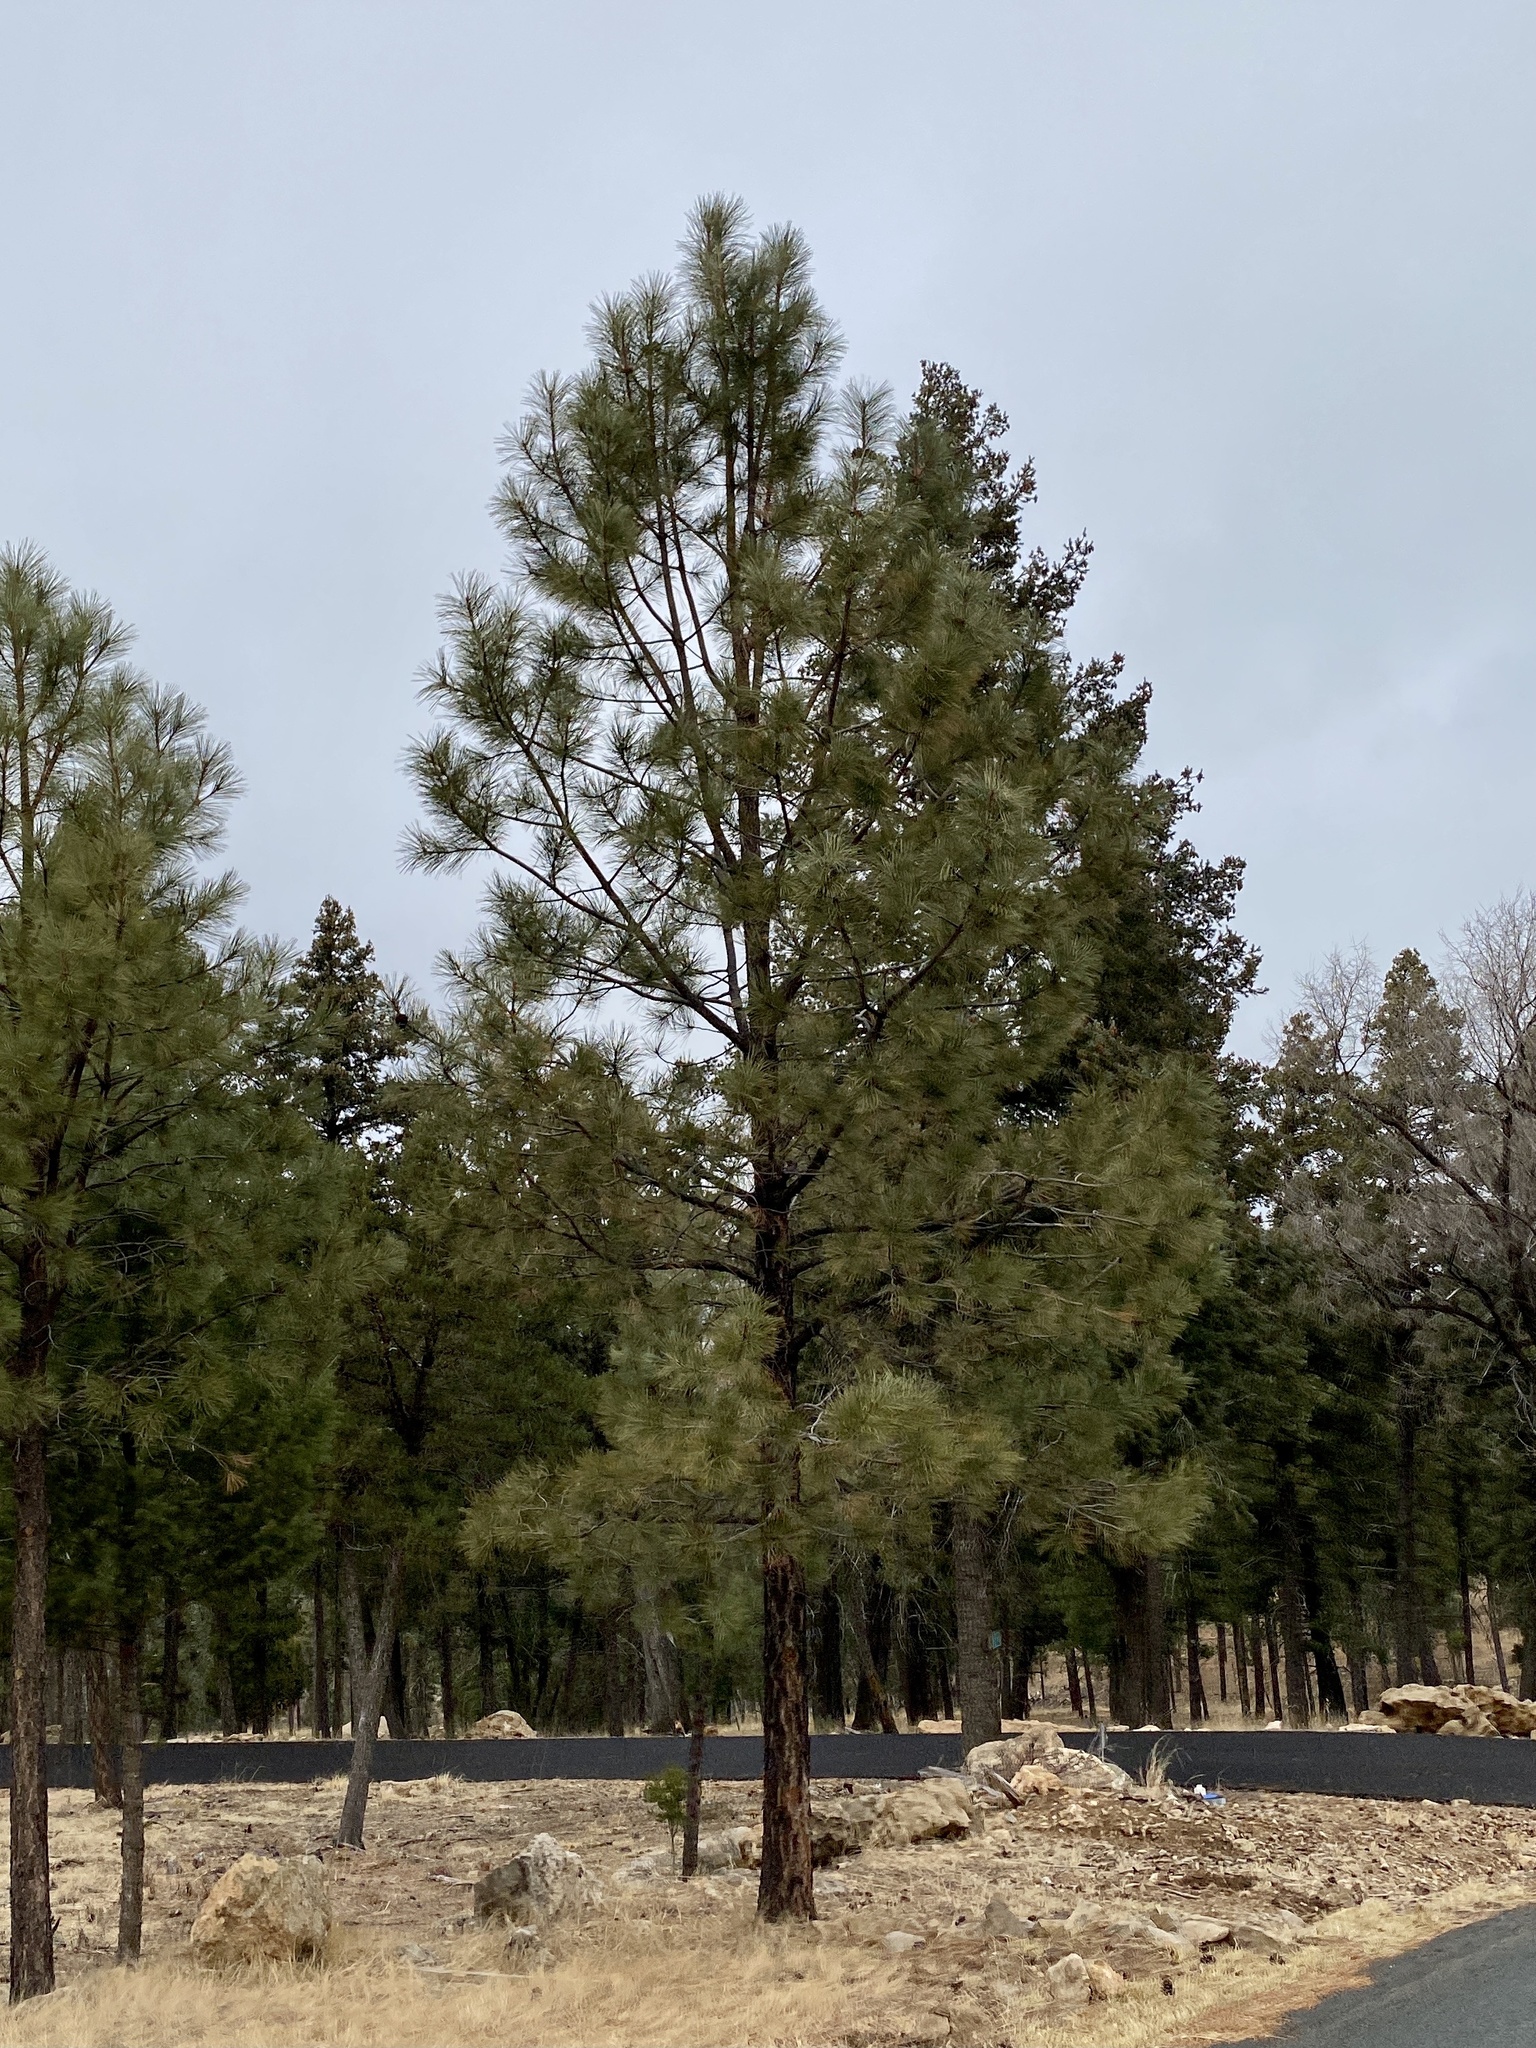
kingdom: Plantae
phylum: Tracheophyta
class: Pinopsida
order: Pinales
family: Pinaceae
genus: Pinus
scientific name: Pinus ponderosa
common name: Western yellow-pine
